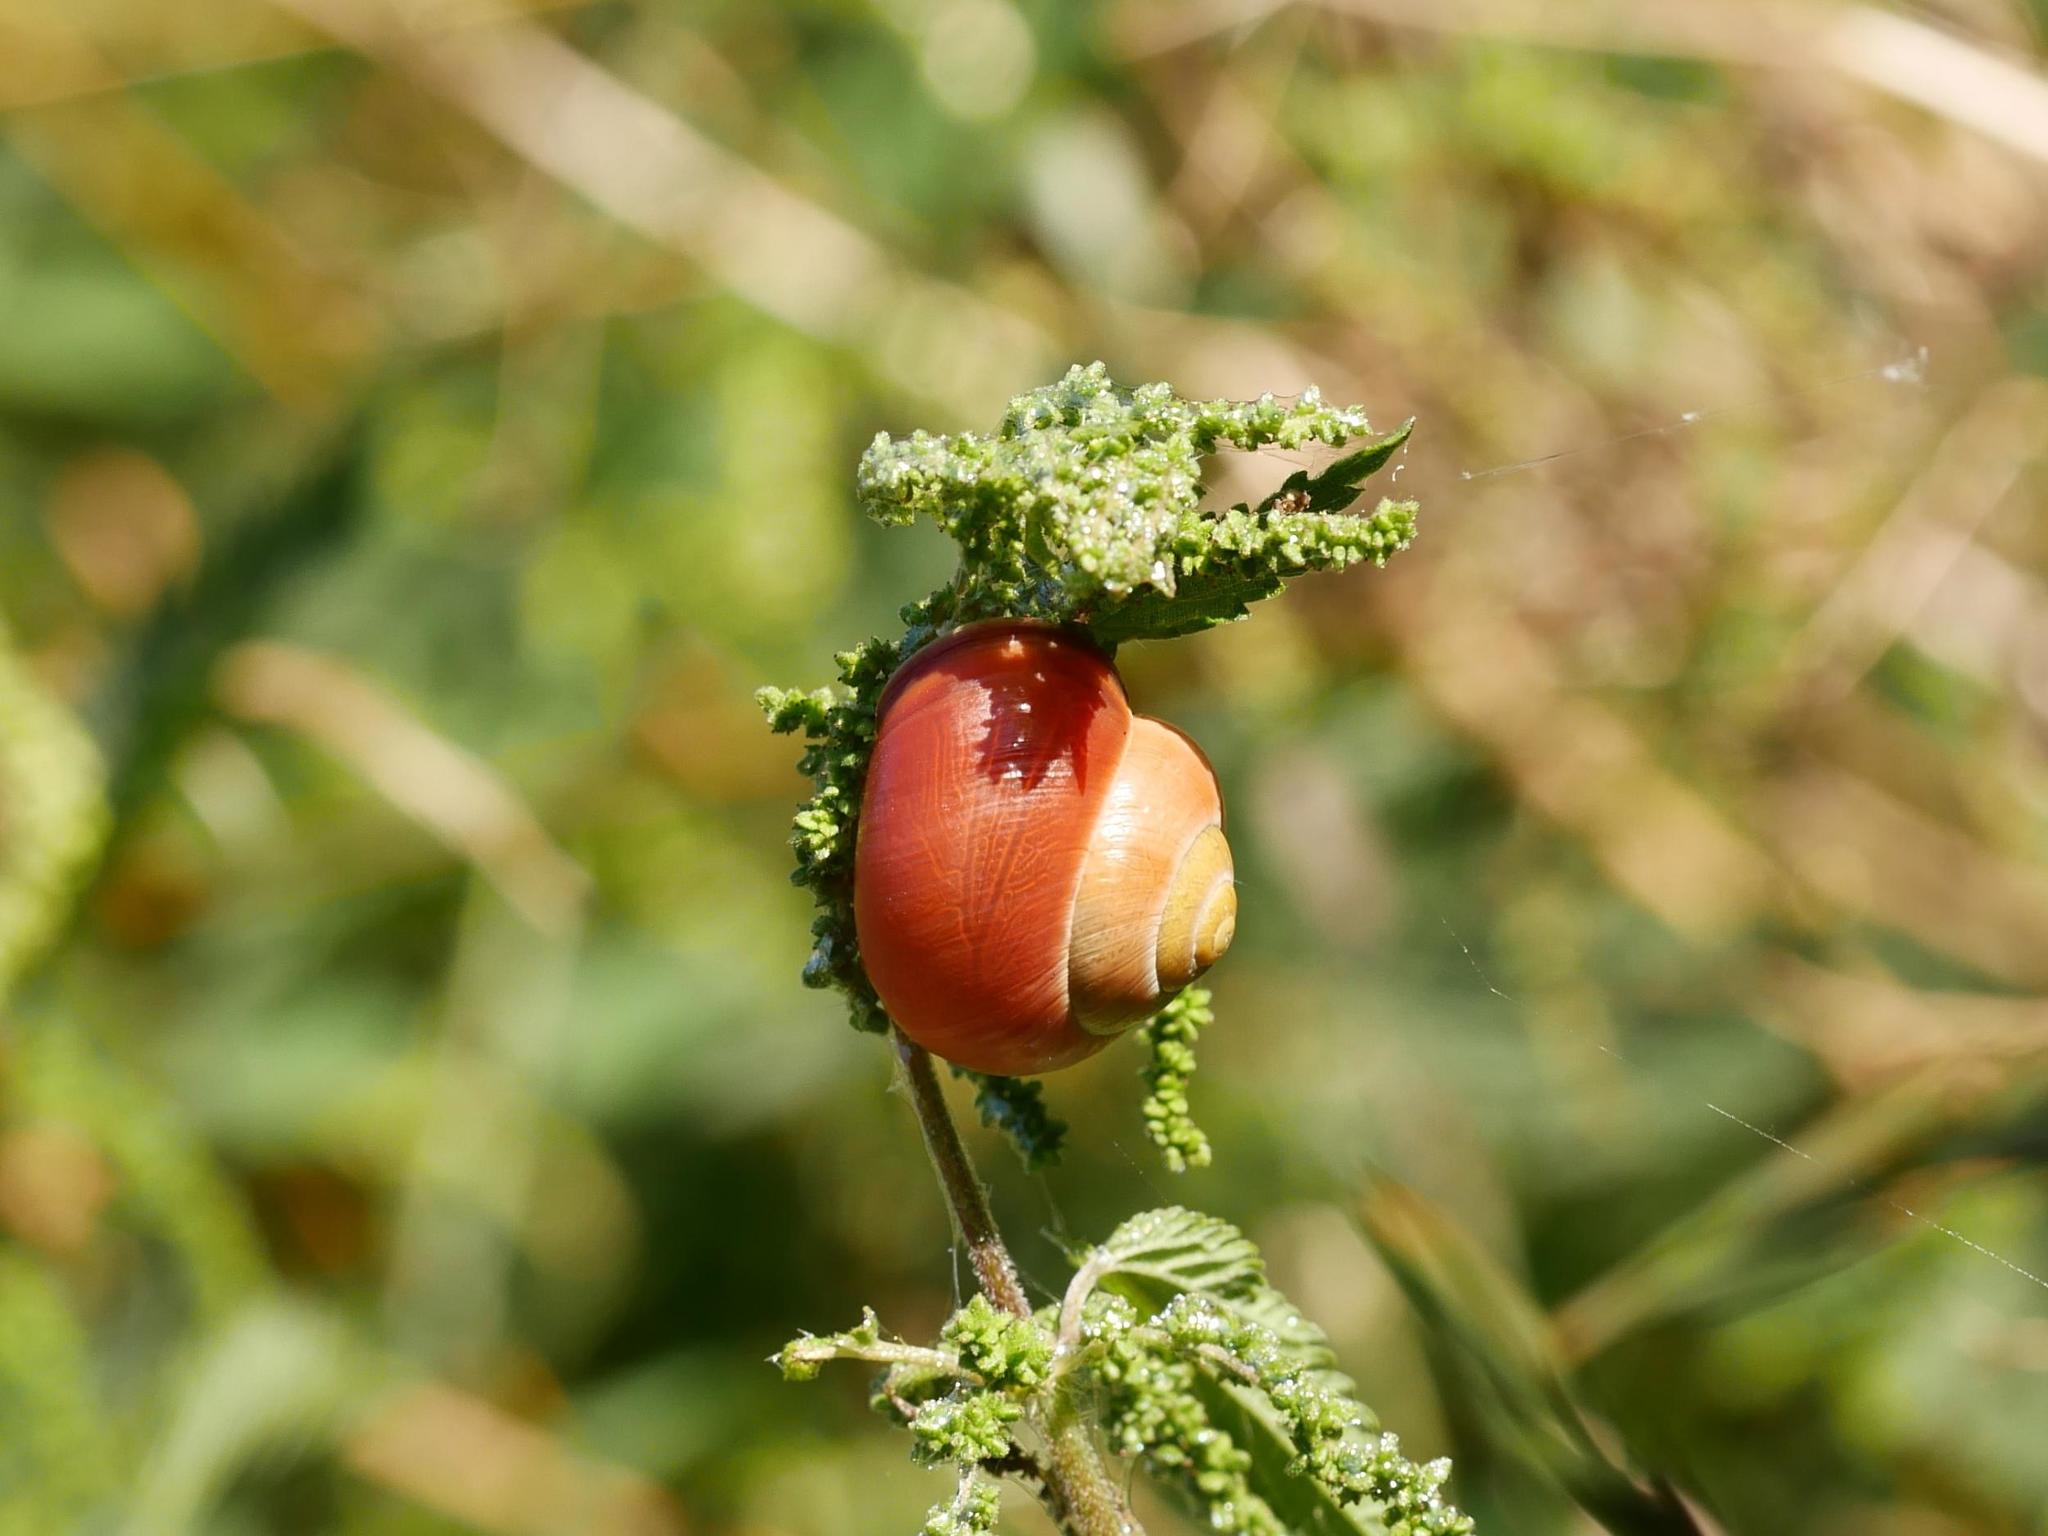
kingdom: Animalia
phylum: Mollusca
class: Gastropoda
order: Stylommatophora
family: Helicidae
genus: Cepaea
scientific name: Cepaea nemoralis
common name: Grovesnail
